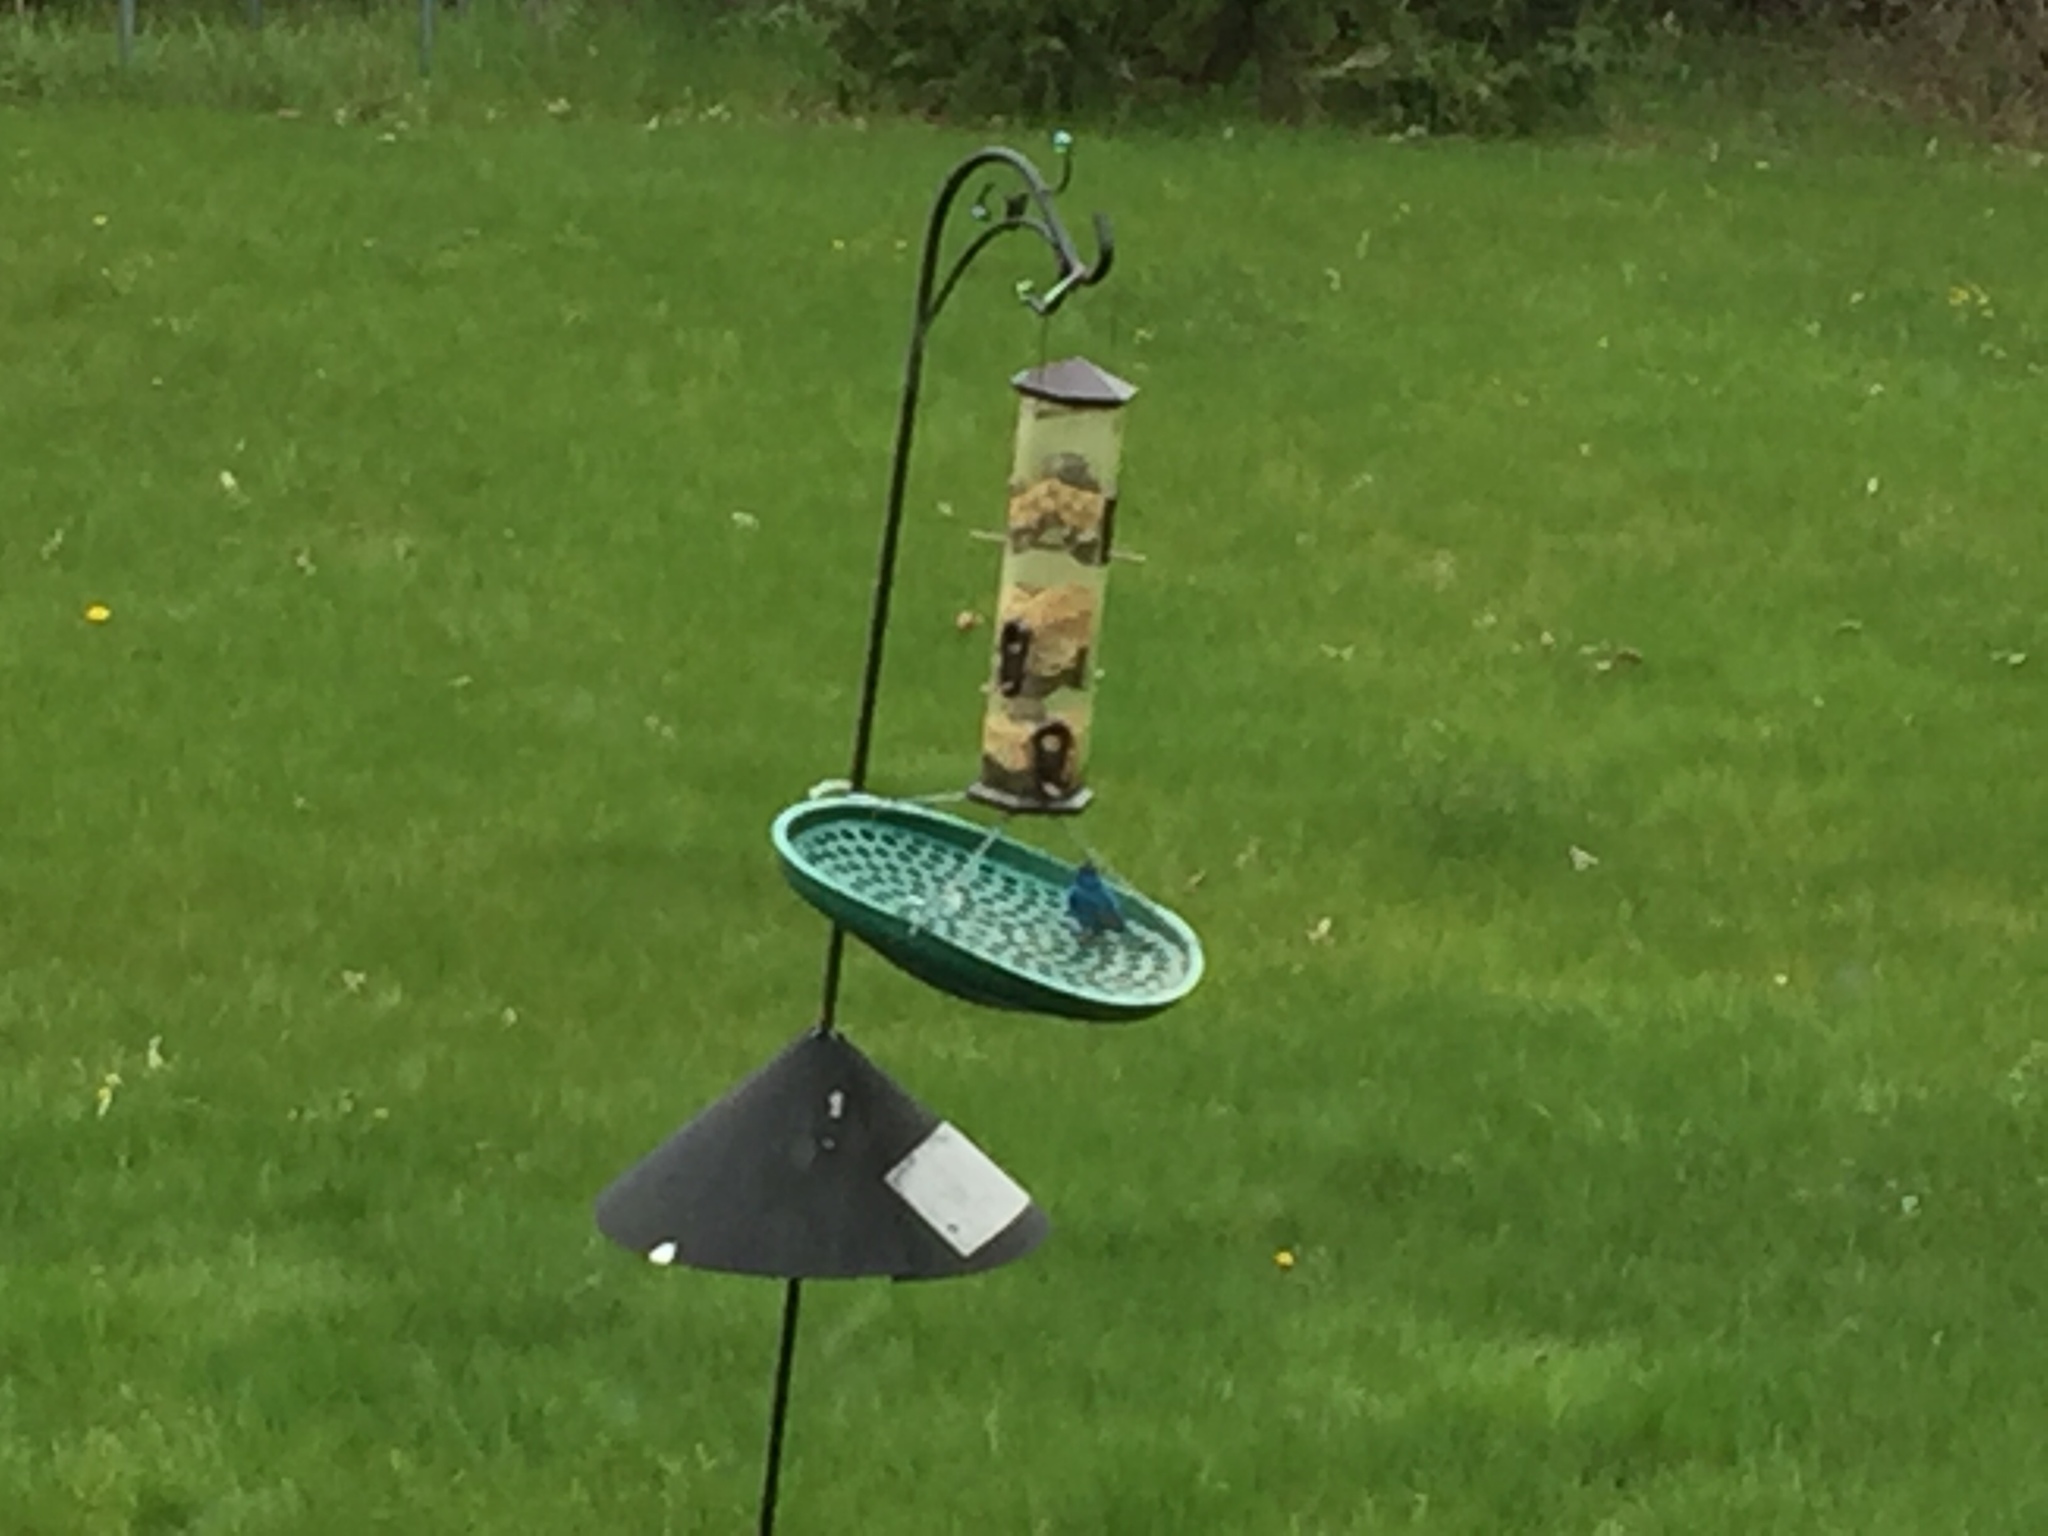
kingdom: Animalia
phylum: Chordata
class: Aves
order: Passeriformes
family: Cardinalidae
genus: Passerina
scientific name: Passerina cyanea
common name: Indigo bunting
